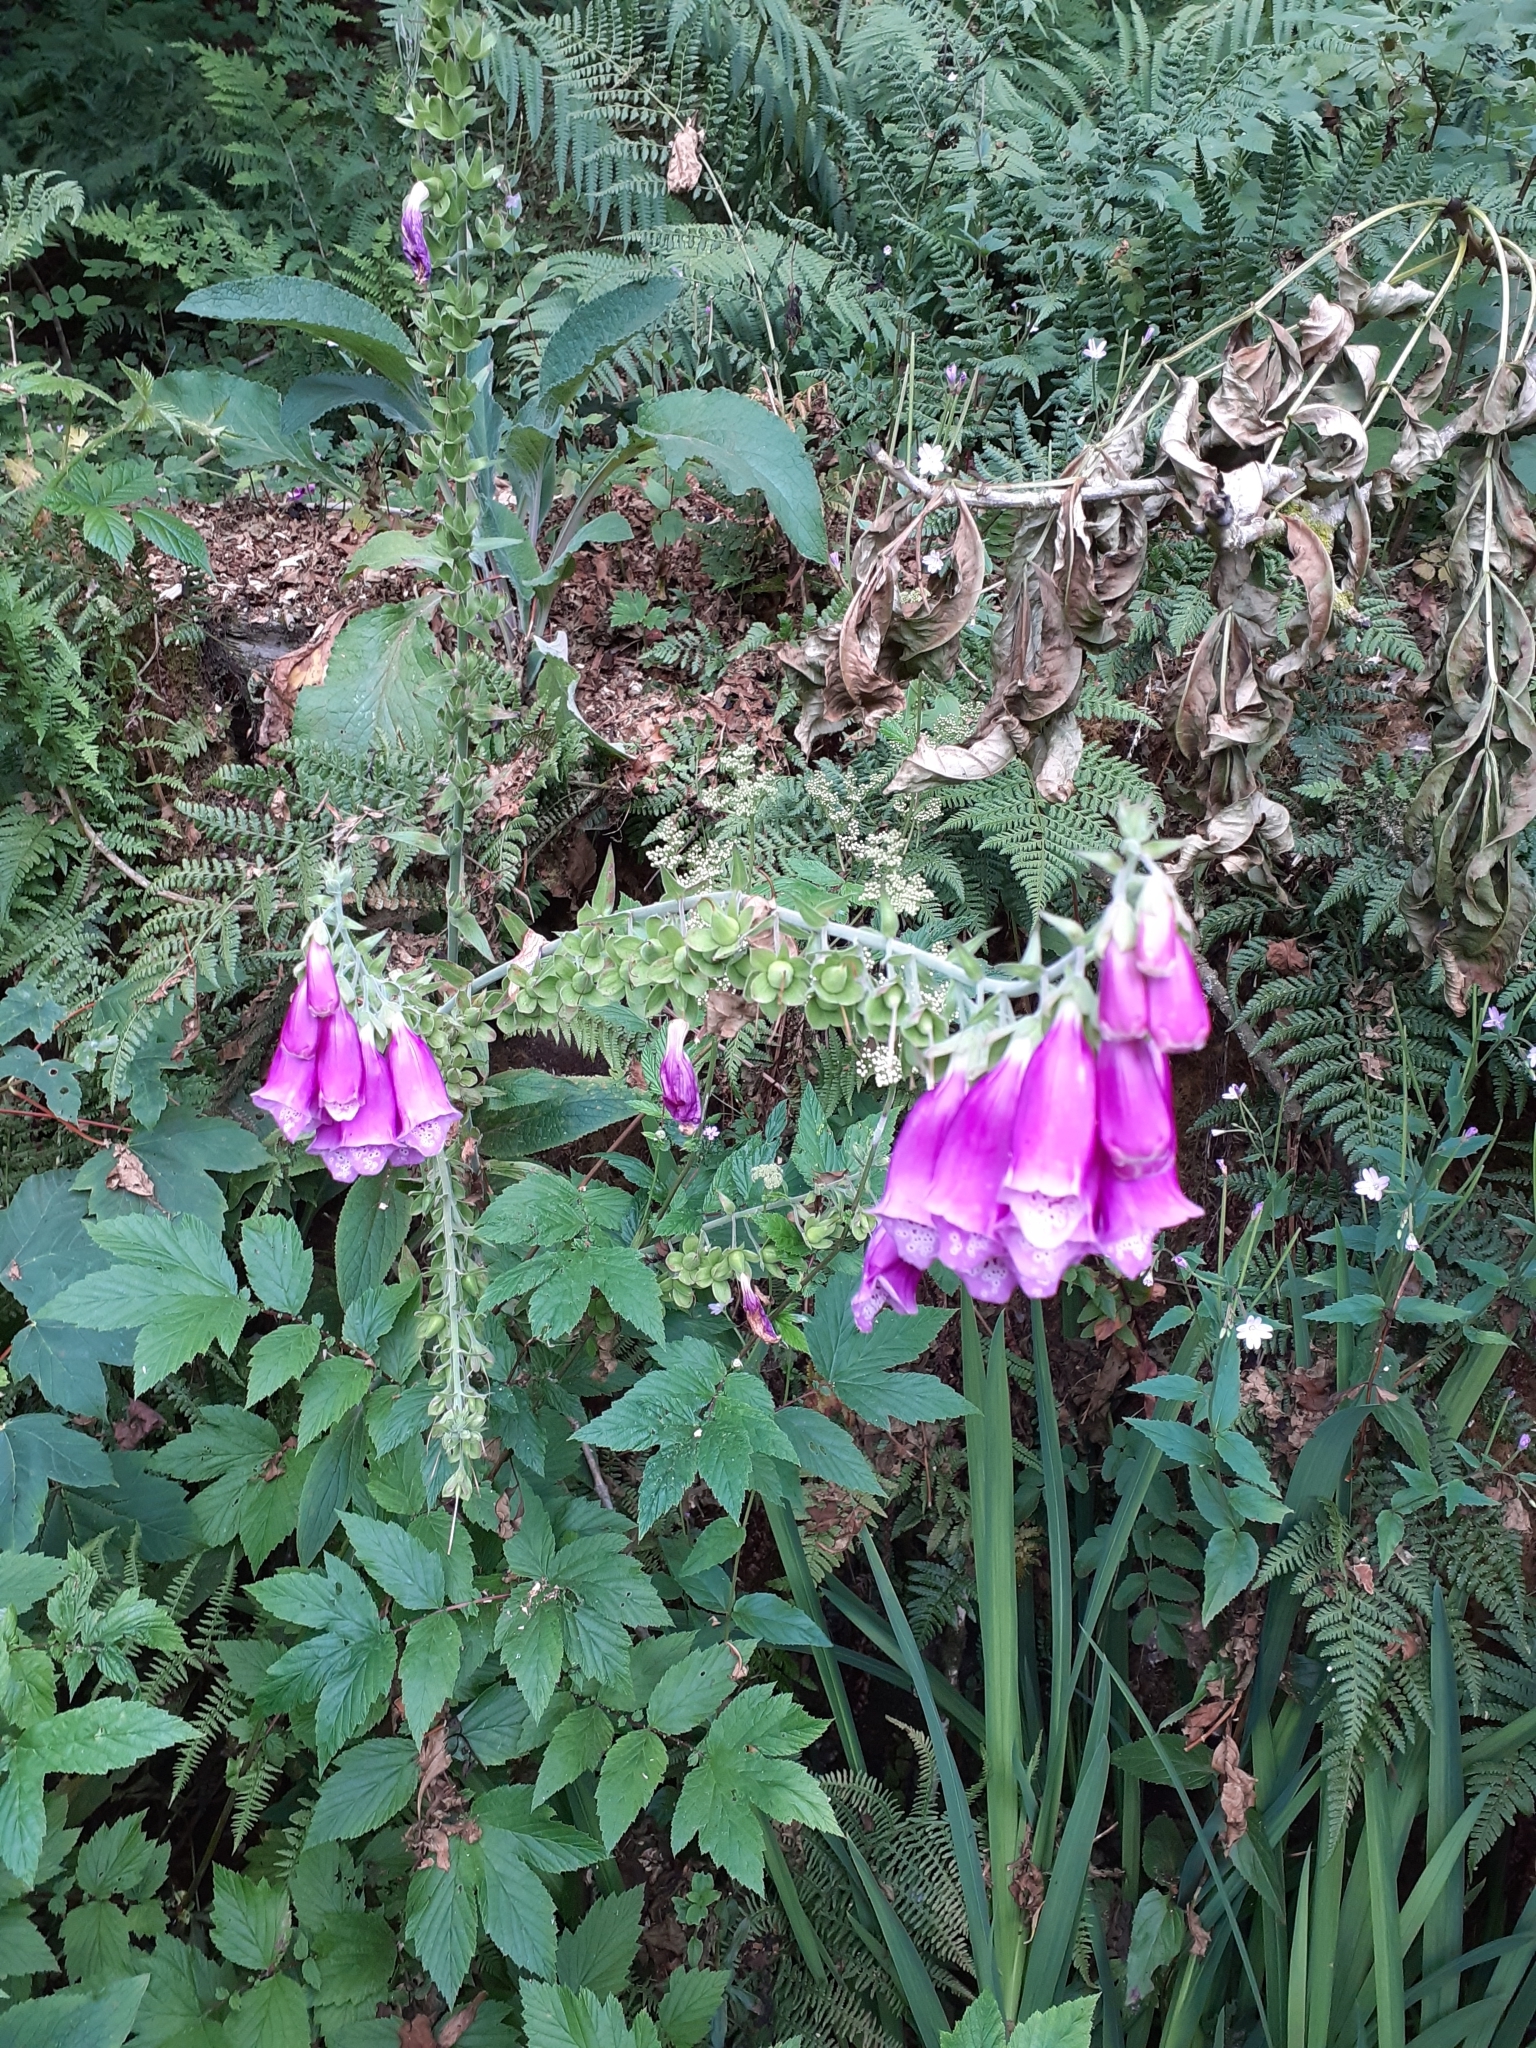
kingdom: Plantae
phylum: Tracheophyta
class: Magnoliopsida
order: Lamiales
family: Plantaginaceae
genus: Digitalis
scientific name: Digitalis purpurea
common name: Foxglove
